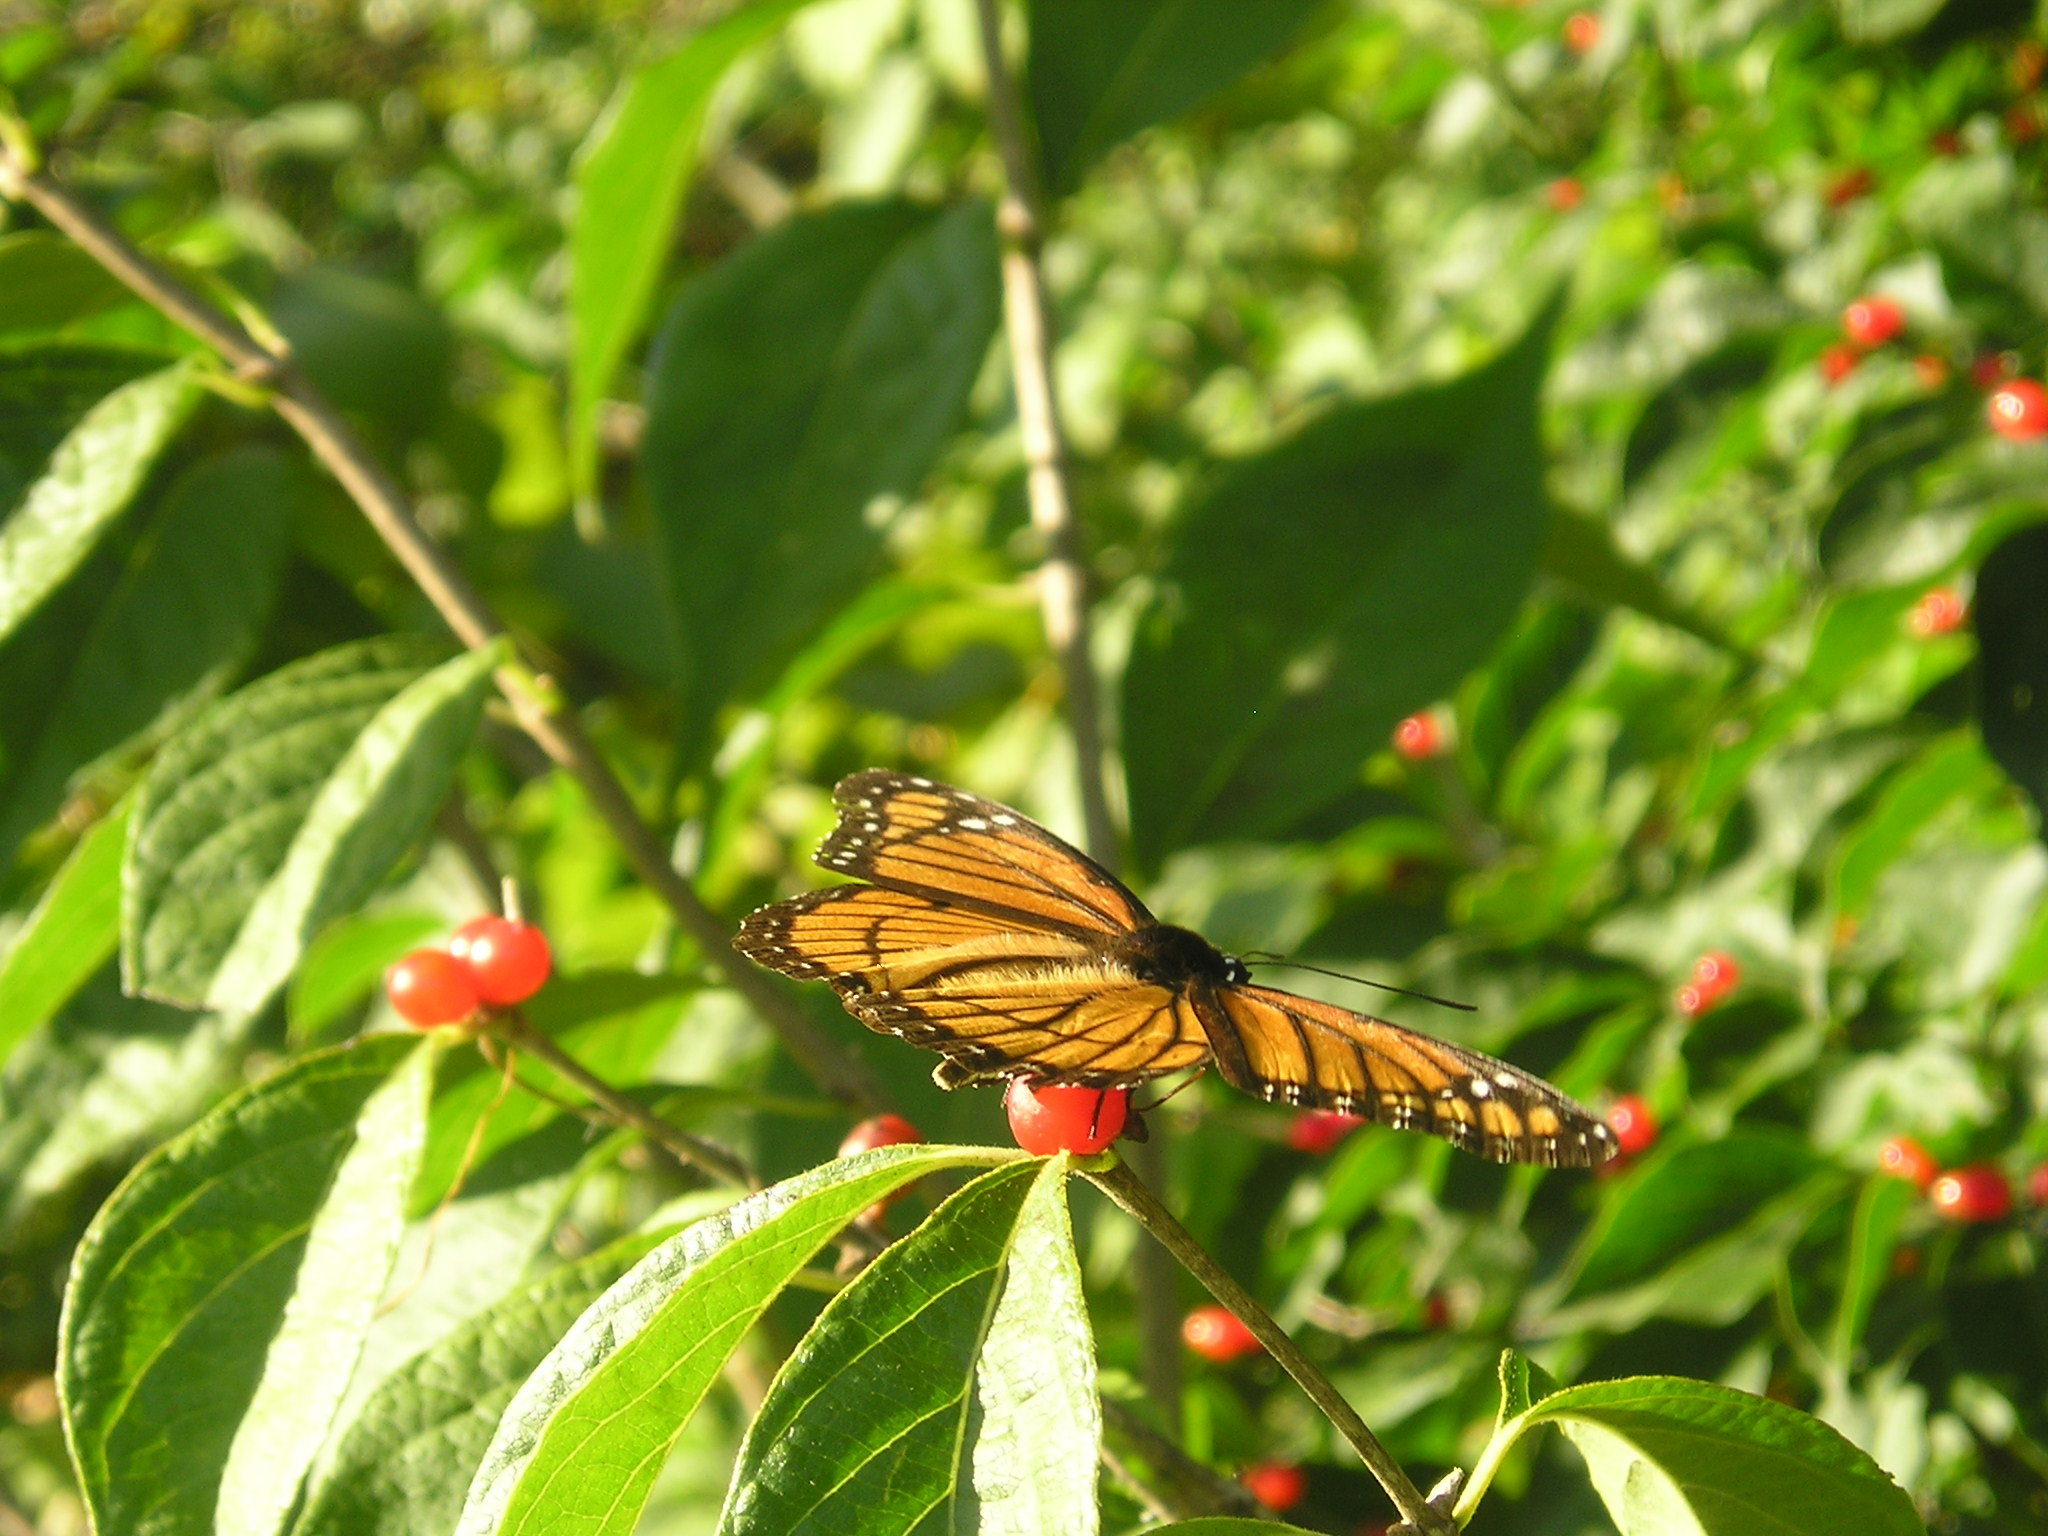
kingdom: Animalia
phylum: Arthropoda
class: Insecta
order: Lepidoptera
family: Nymphalidae
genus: Limenitis
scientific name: Limenitis archippus
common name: Viceroy
